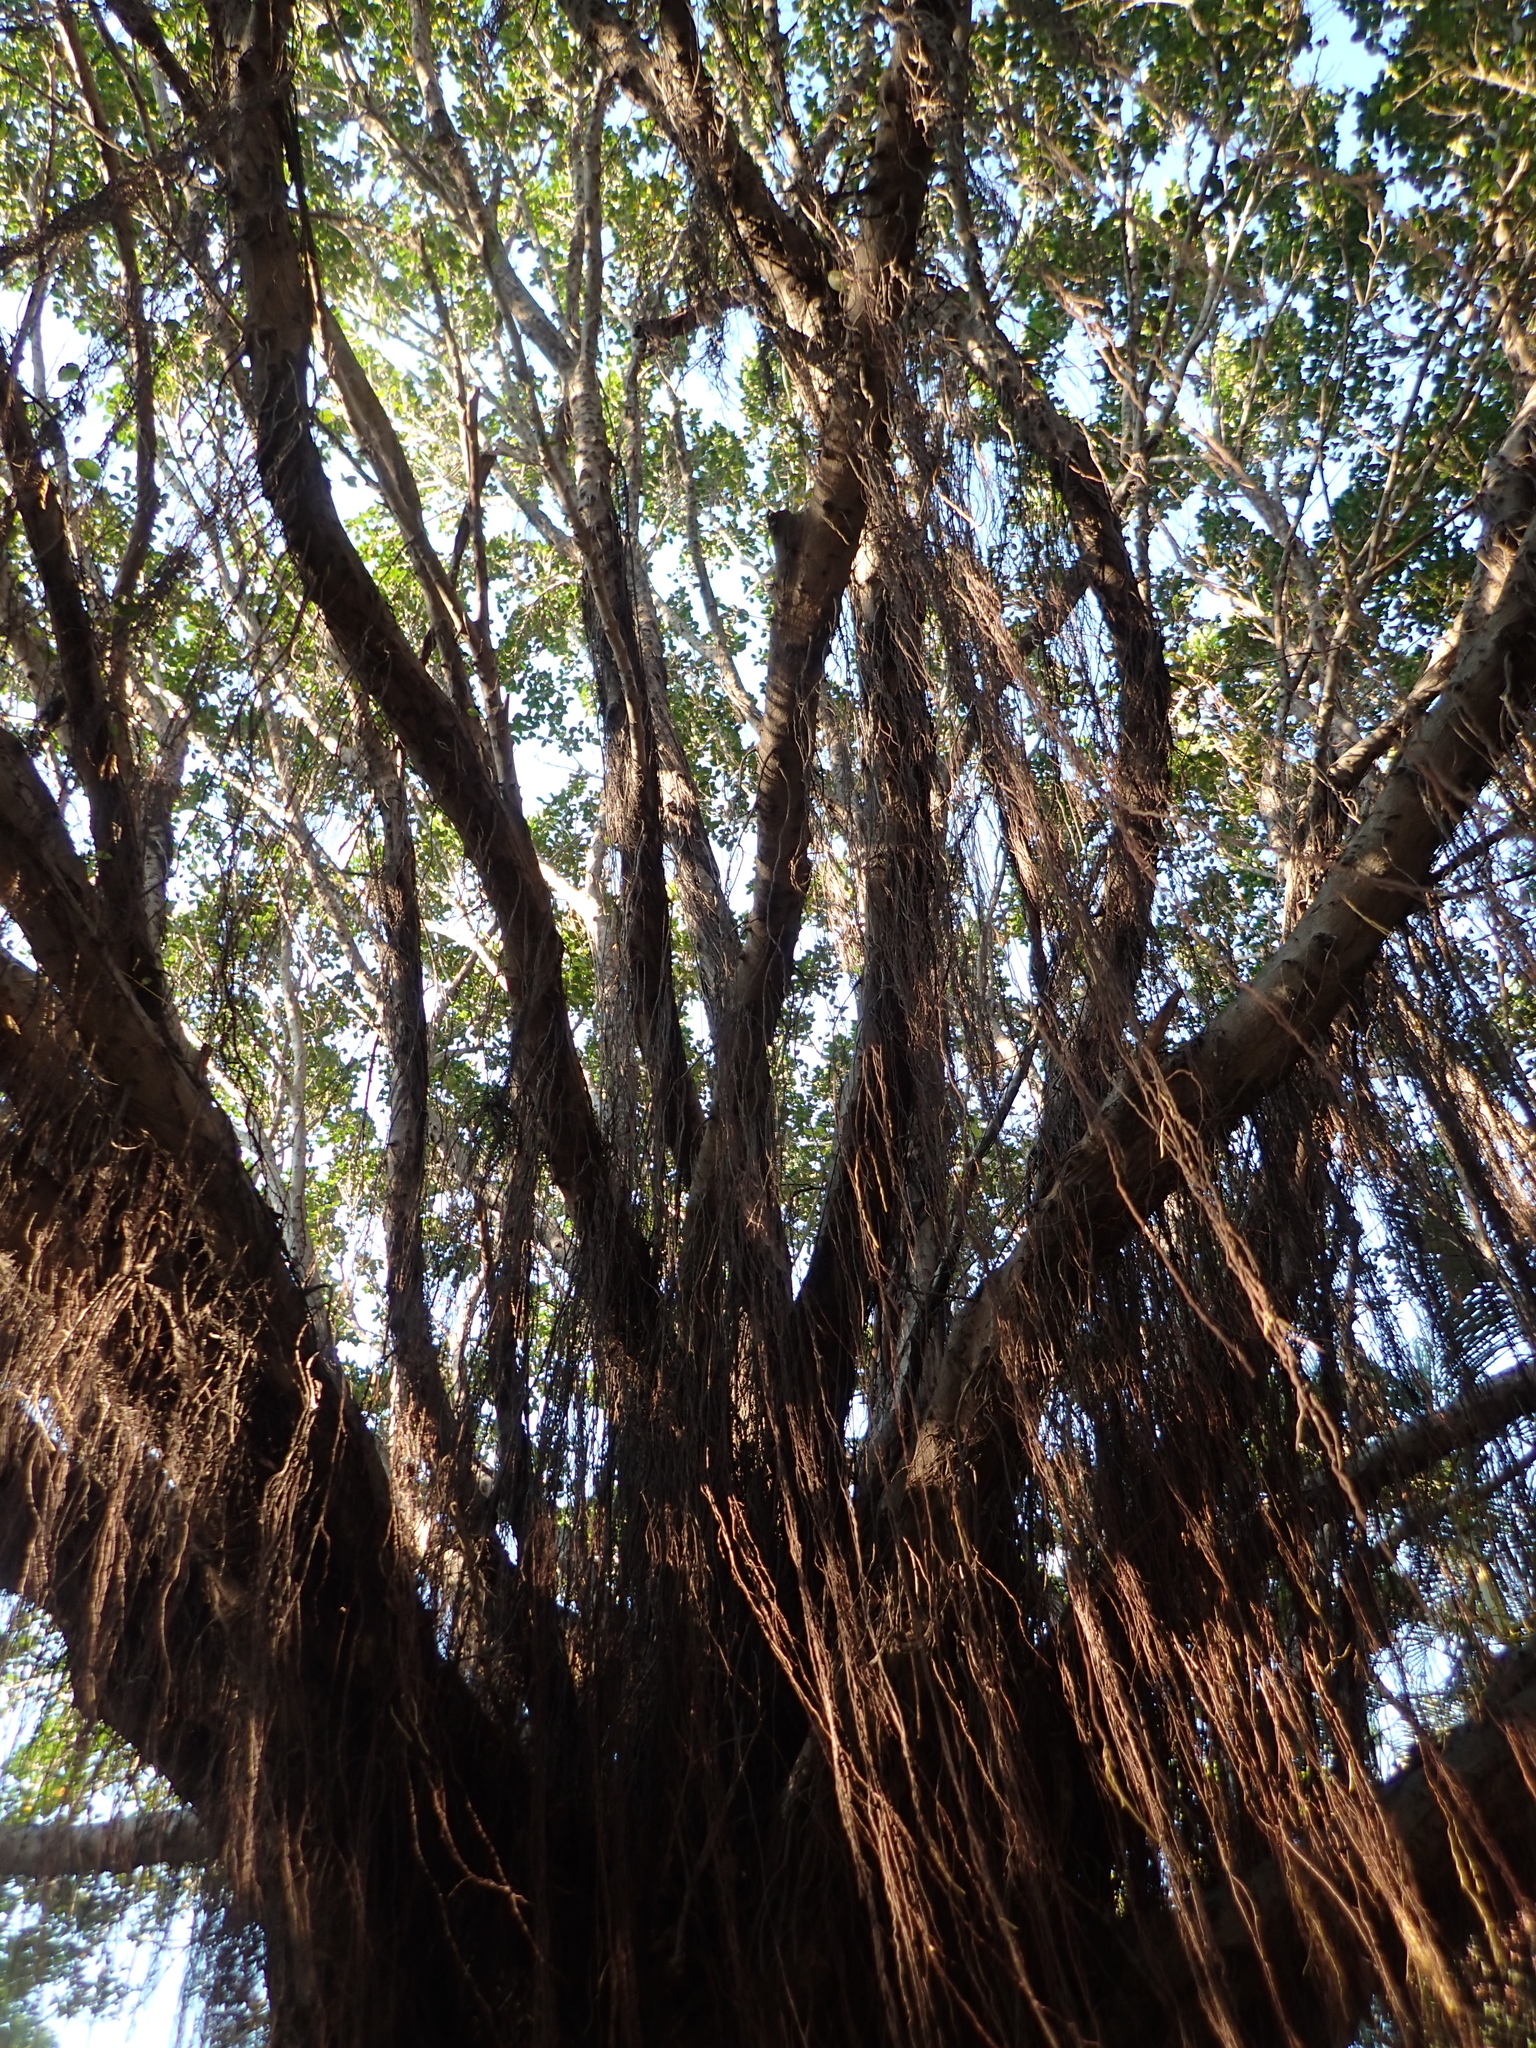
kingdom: Plantae
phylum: Tracheophyta
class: Magnoliopsida
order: Rosales
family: Moraceae
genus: Ficus
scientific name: Ficus microcarpa
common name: Chinese banyan
